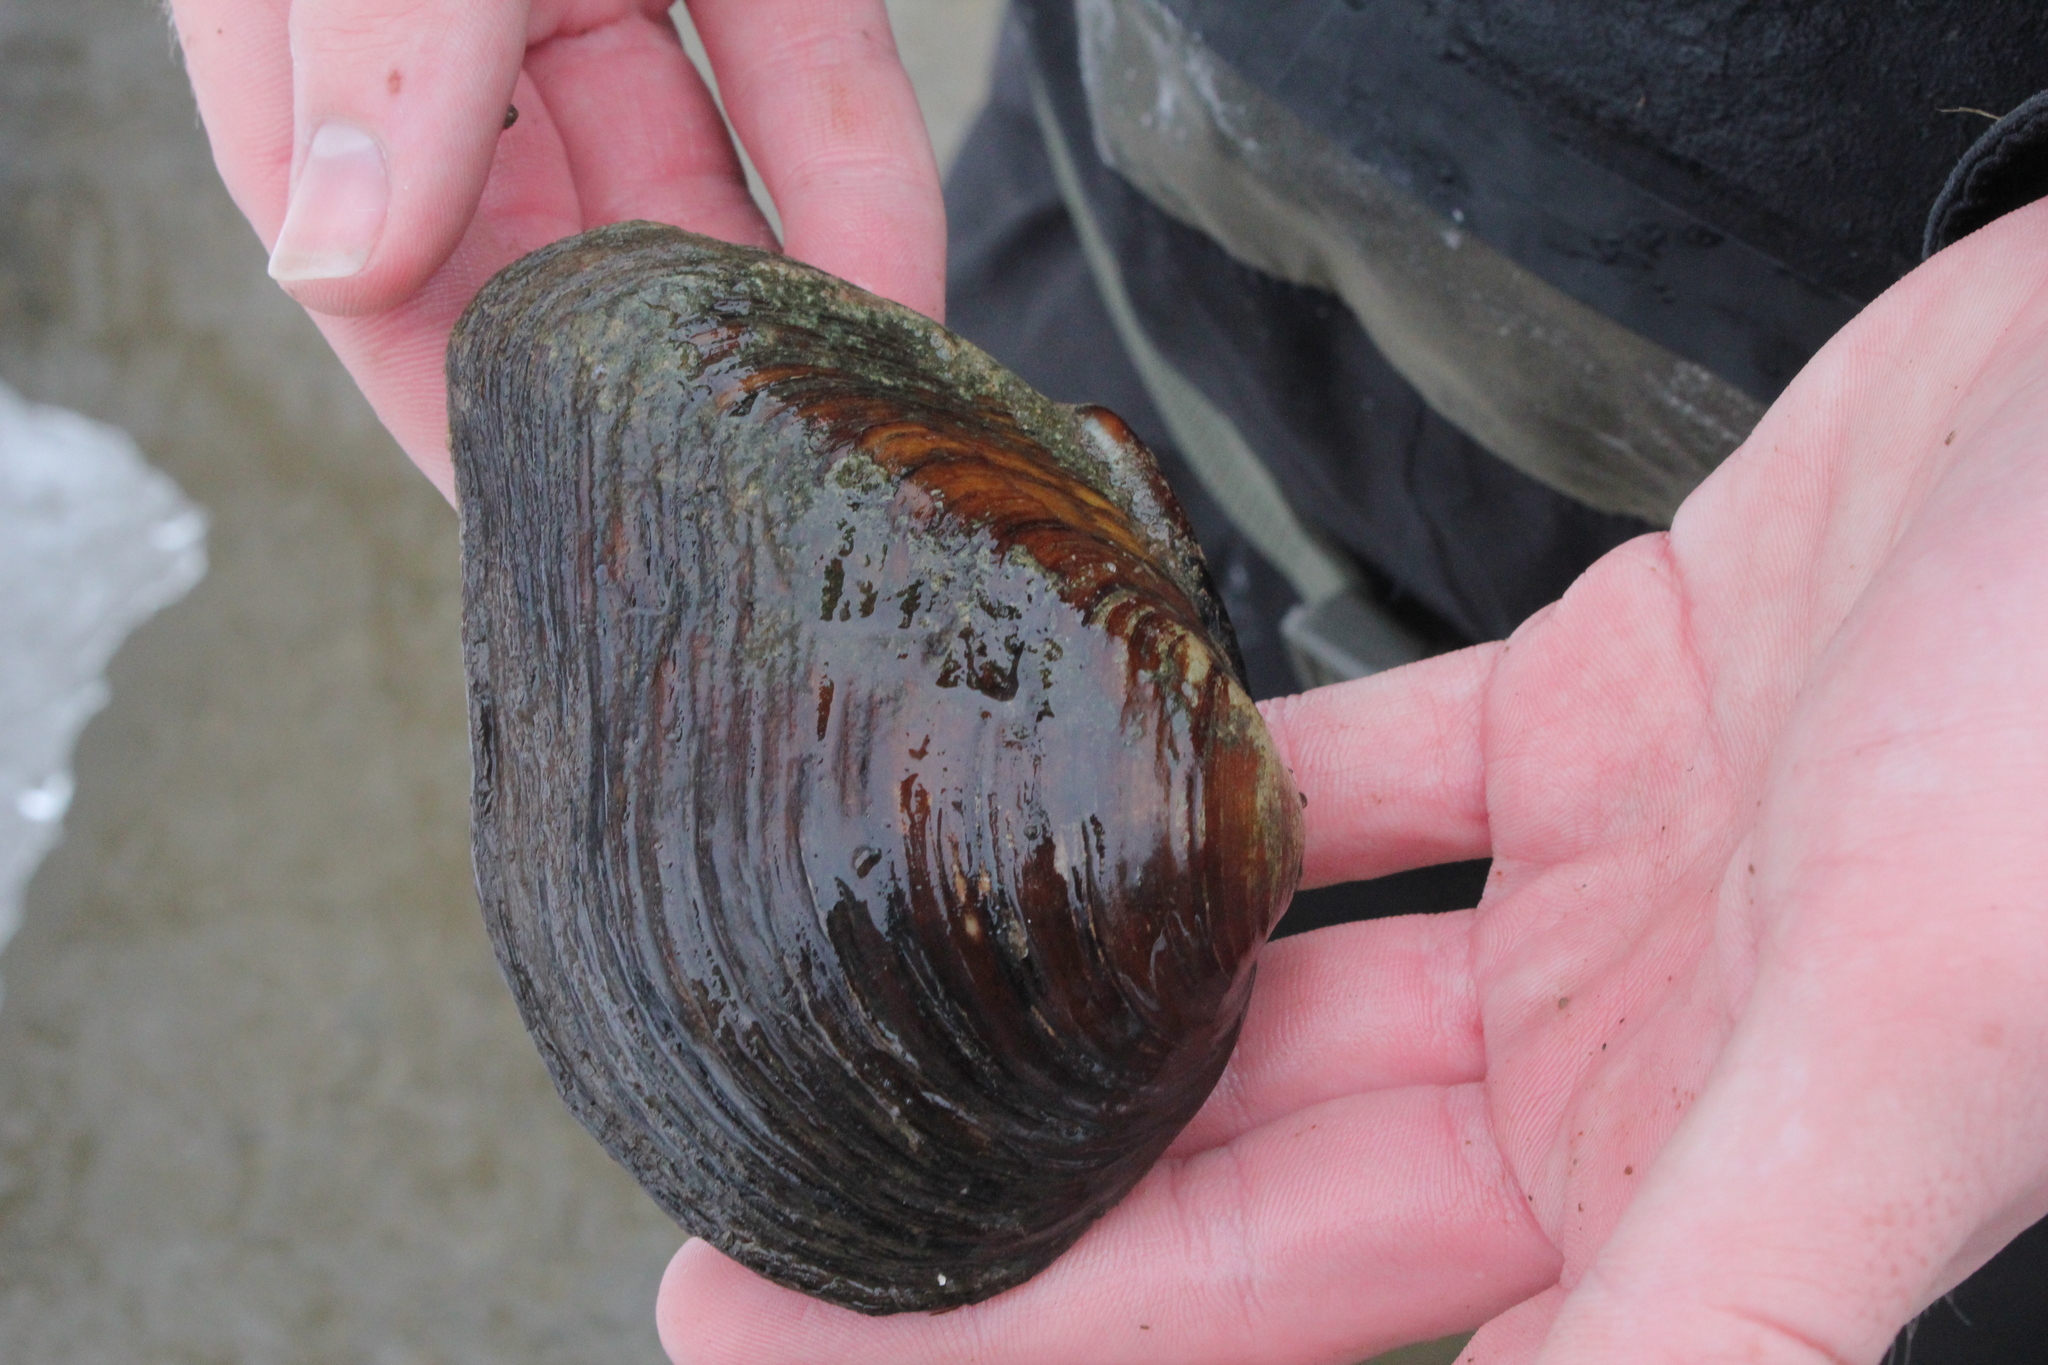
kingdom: Animalia
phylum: Mollusca
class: Bivalvia
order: Unionida
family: Unionidae
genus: Fusconaia
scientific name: Fusconaia flava
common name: Wabash pigtoe
